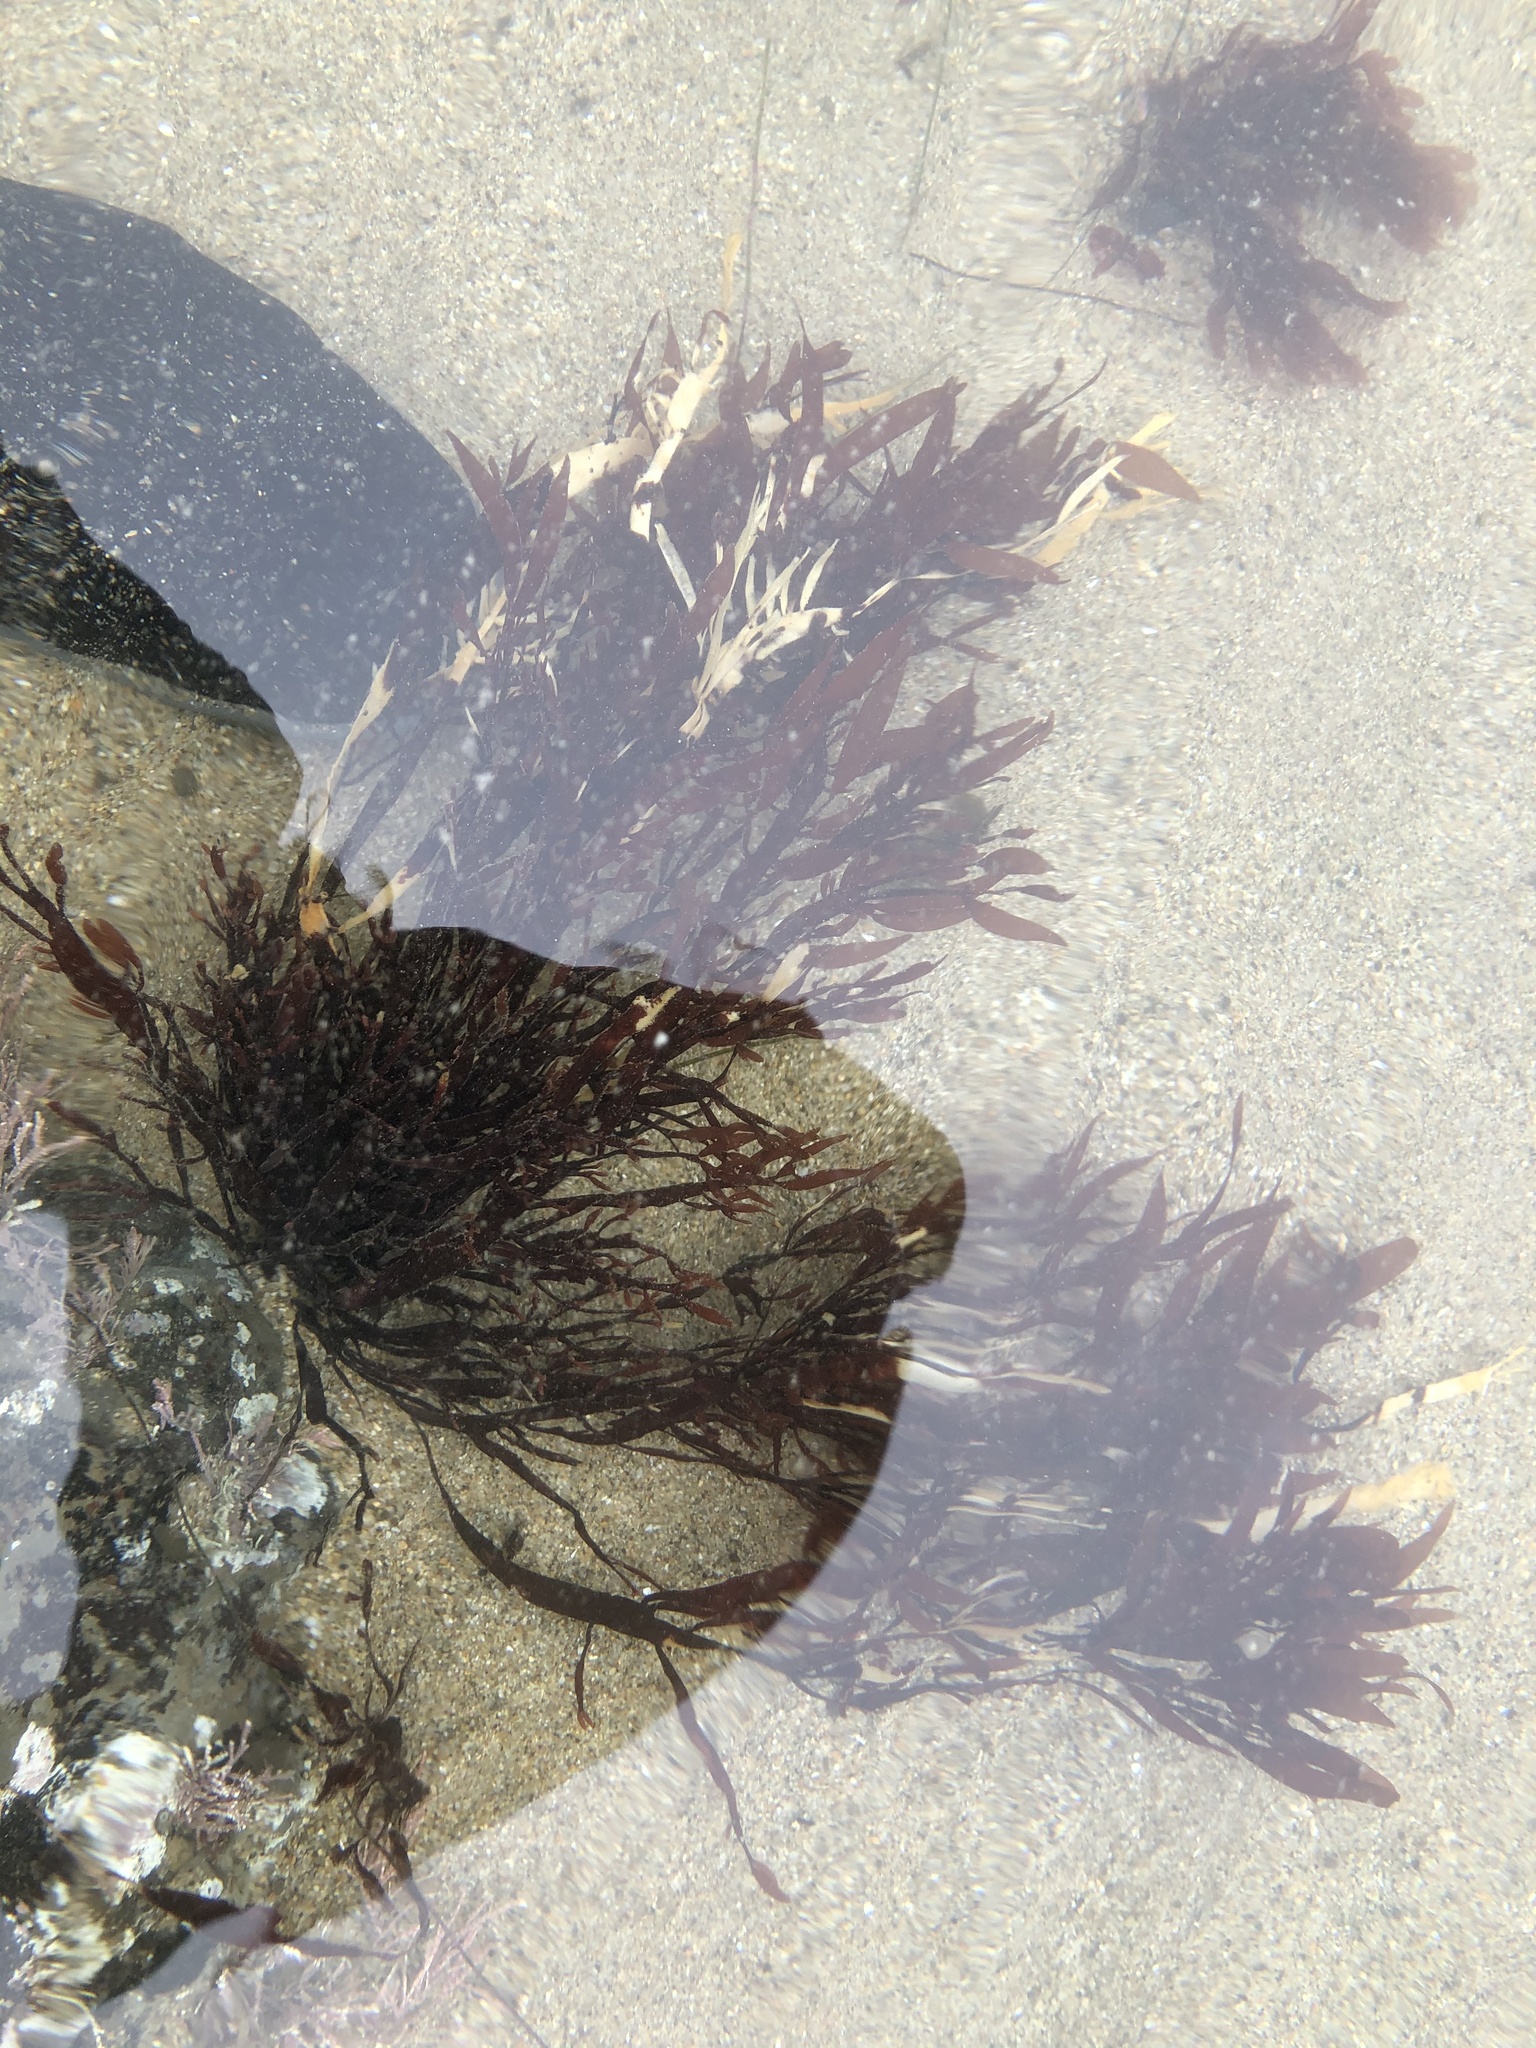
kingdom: Plantae
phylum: Rhodophyta
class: Florideophyceae
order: Halymeniales
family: Halymeniaceae
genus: Grateloupia
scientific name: Grateloupia Prionitis lanceolata
